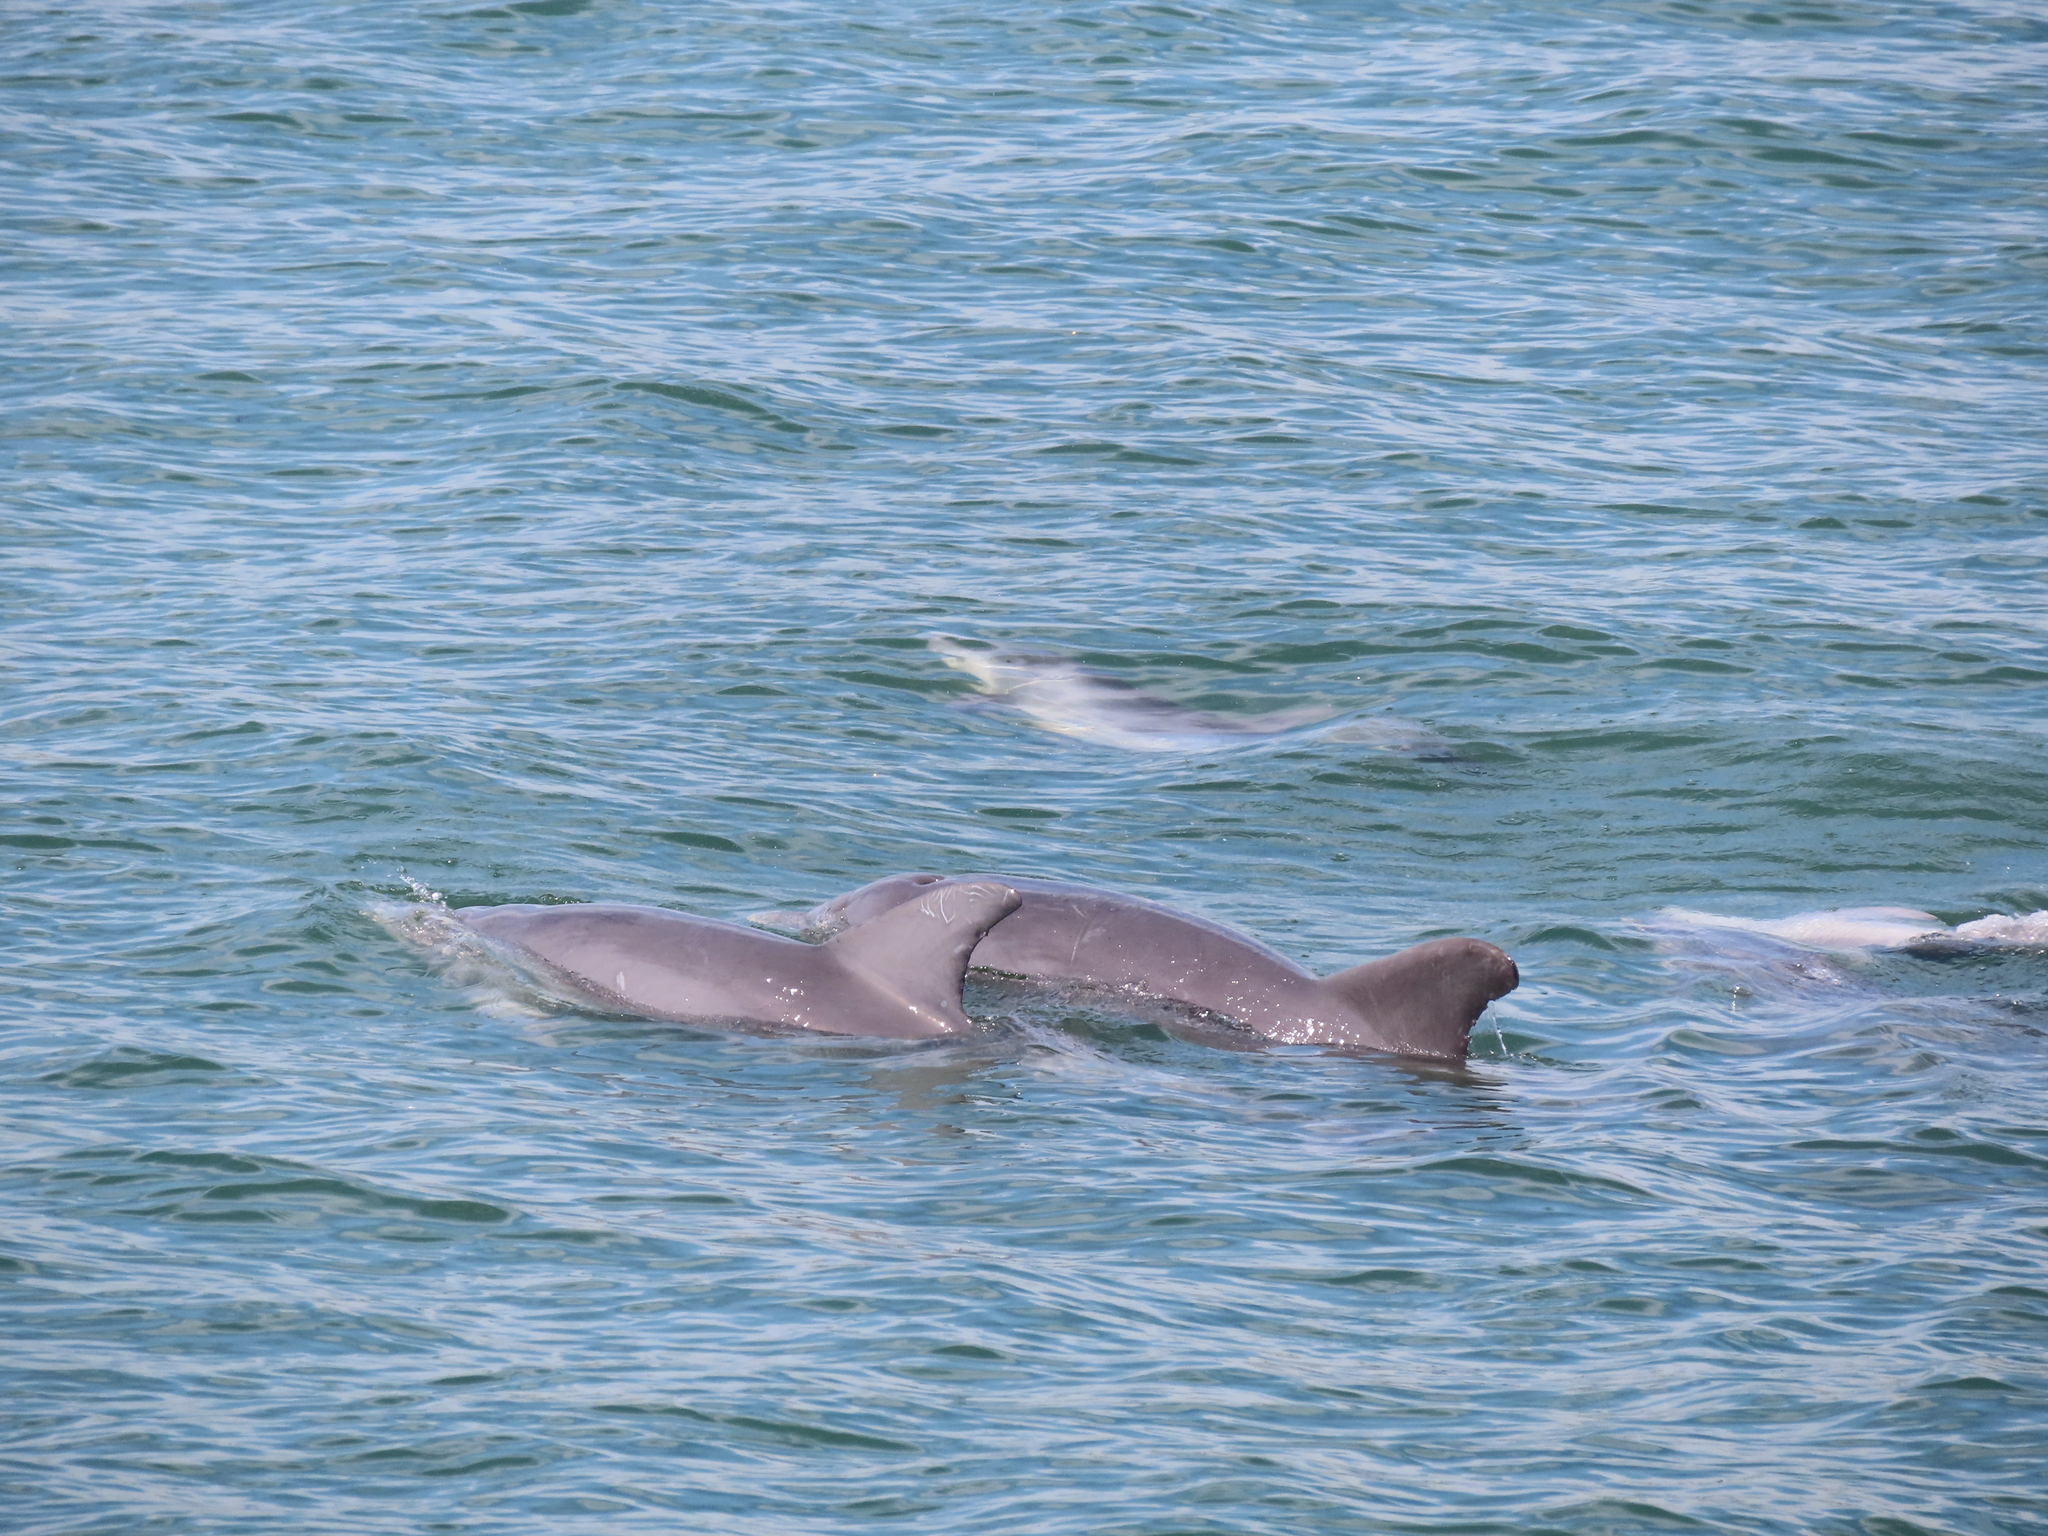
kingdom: Animalia
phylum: Chordata
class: Mammalia
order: Cetacea
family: Delphinidae
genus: Tursiops
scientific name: Tursiops truncatus
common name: Bottlenose dolphin
